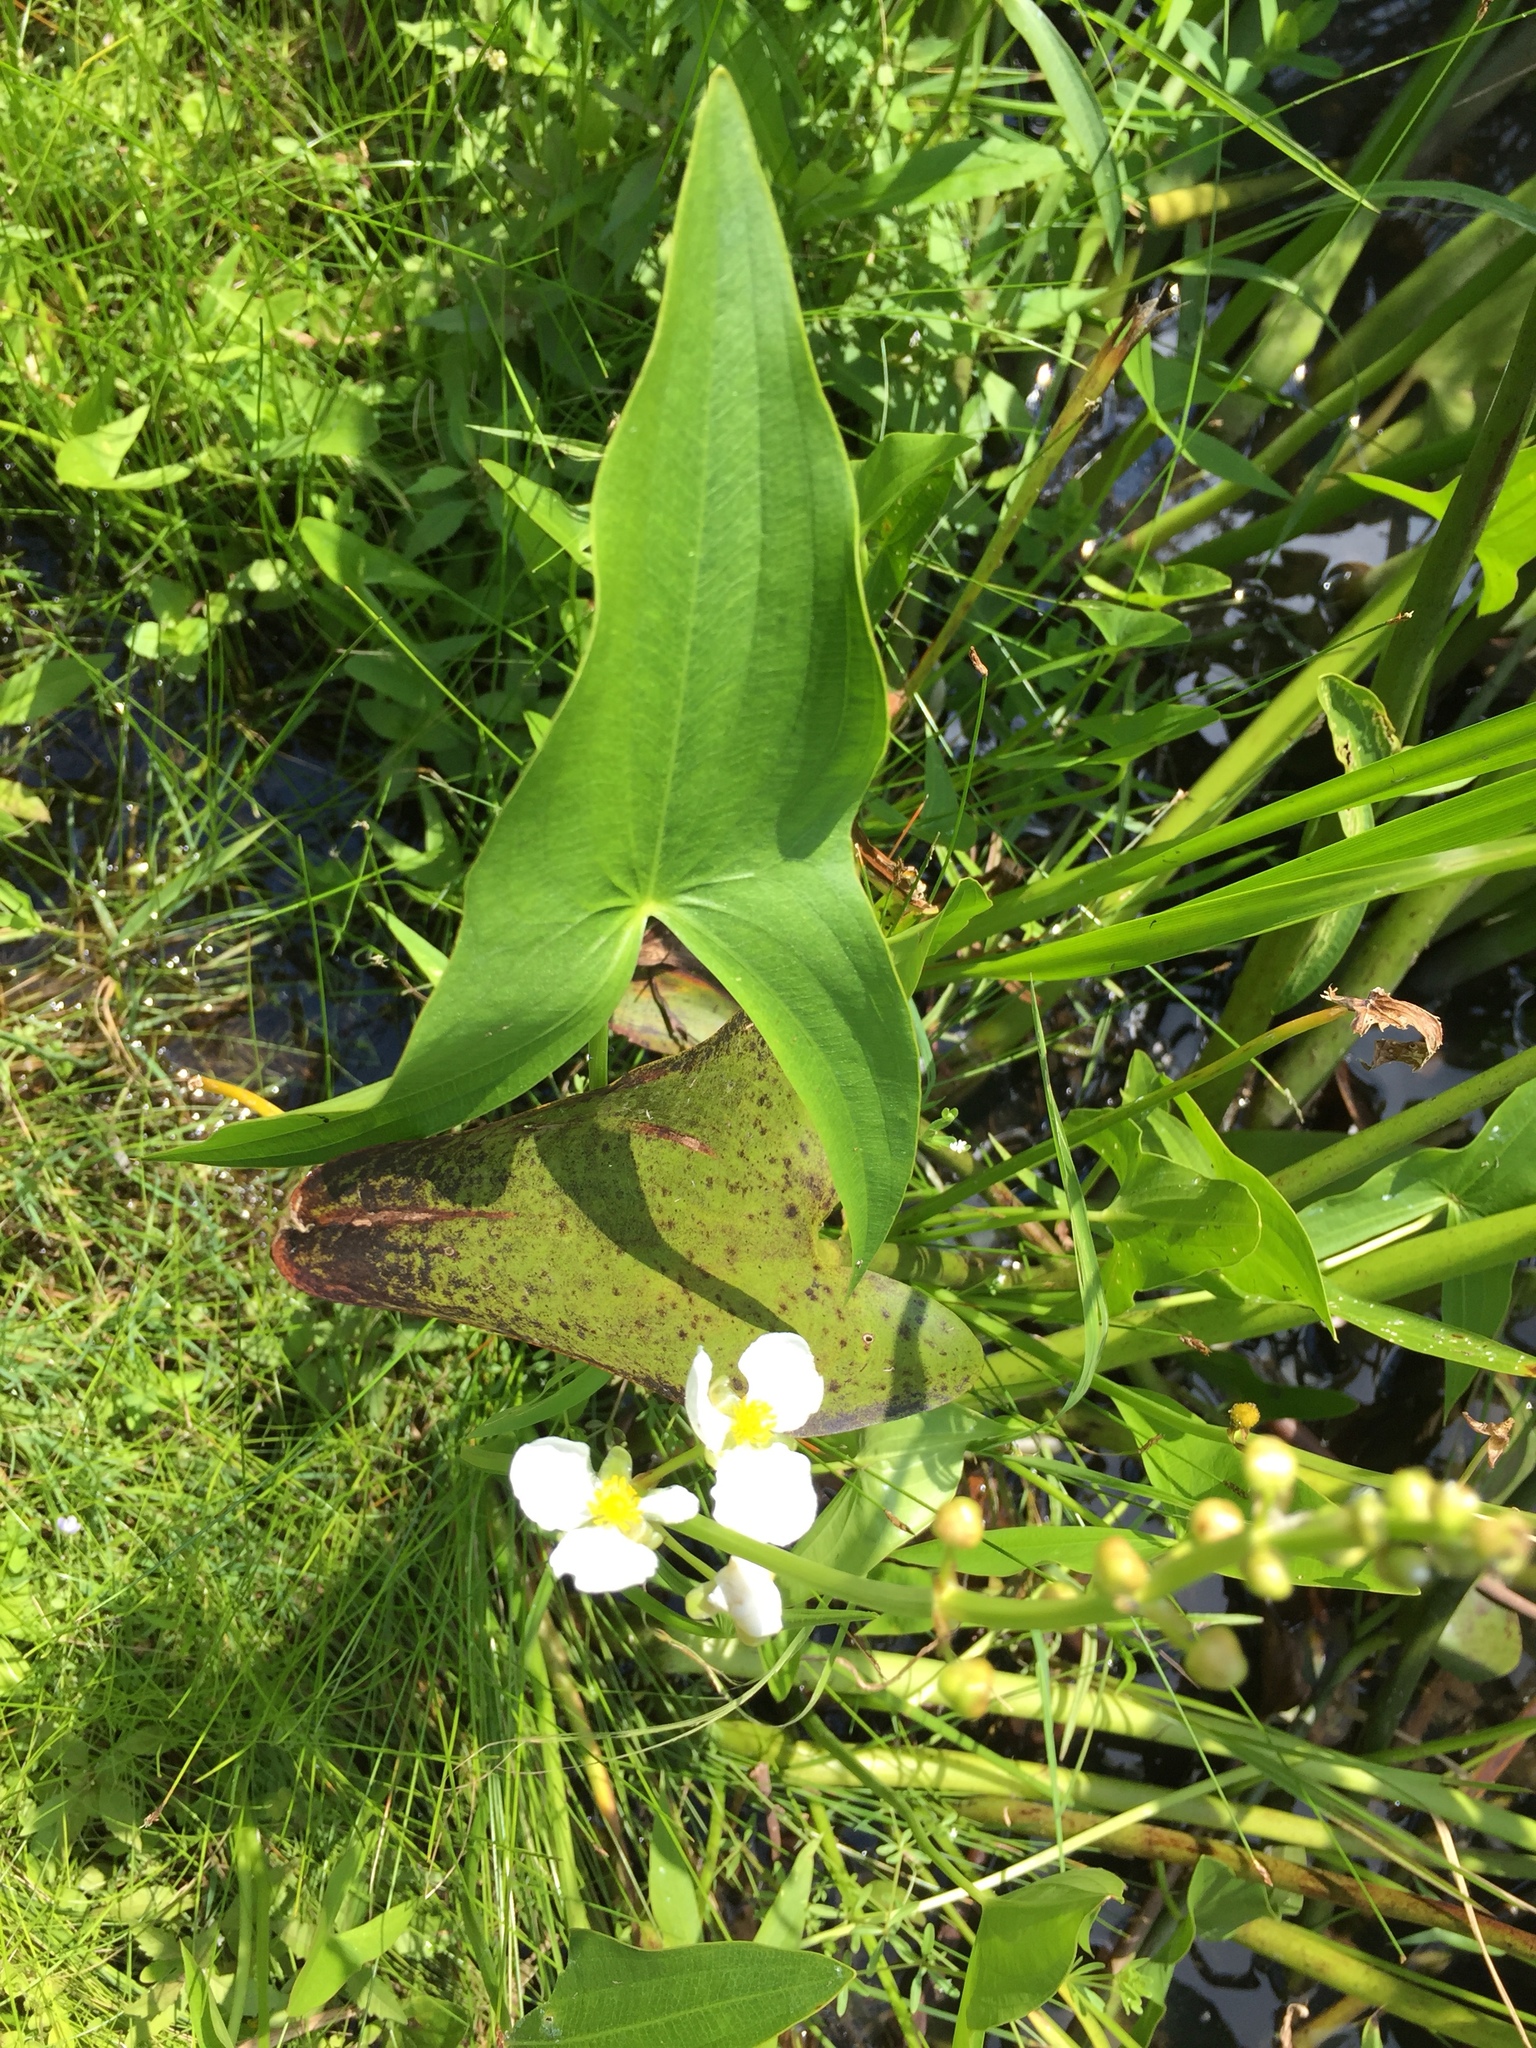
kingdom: Plantae
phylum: Tracheophyta
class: Liliopsida
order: Alismatales
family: Alismataceae
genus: Sagittaria
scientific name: Sagittaria latifolia
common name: Duck-potato
